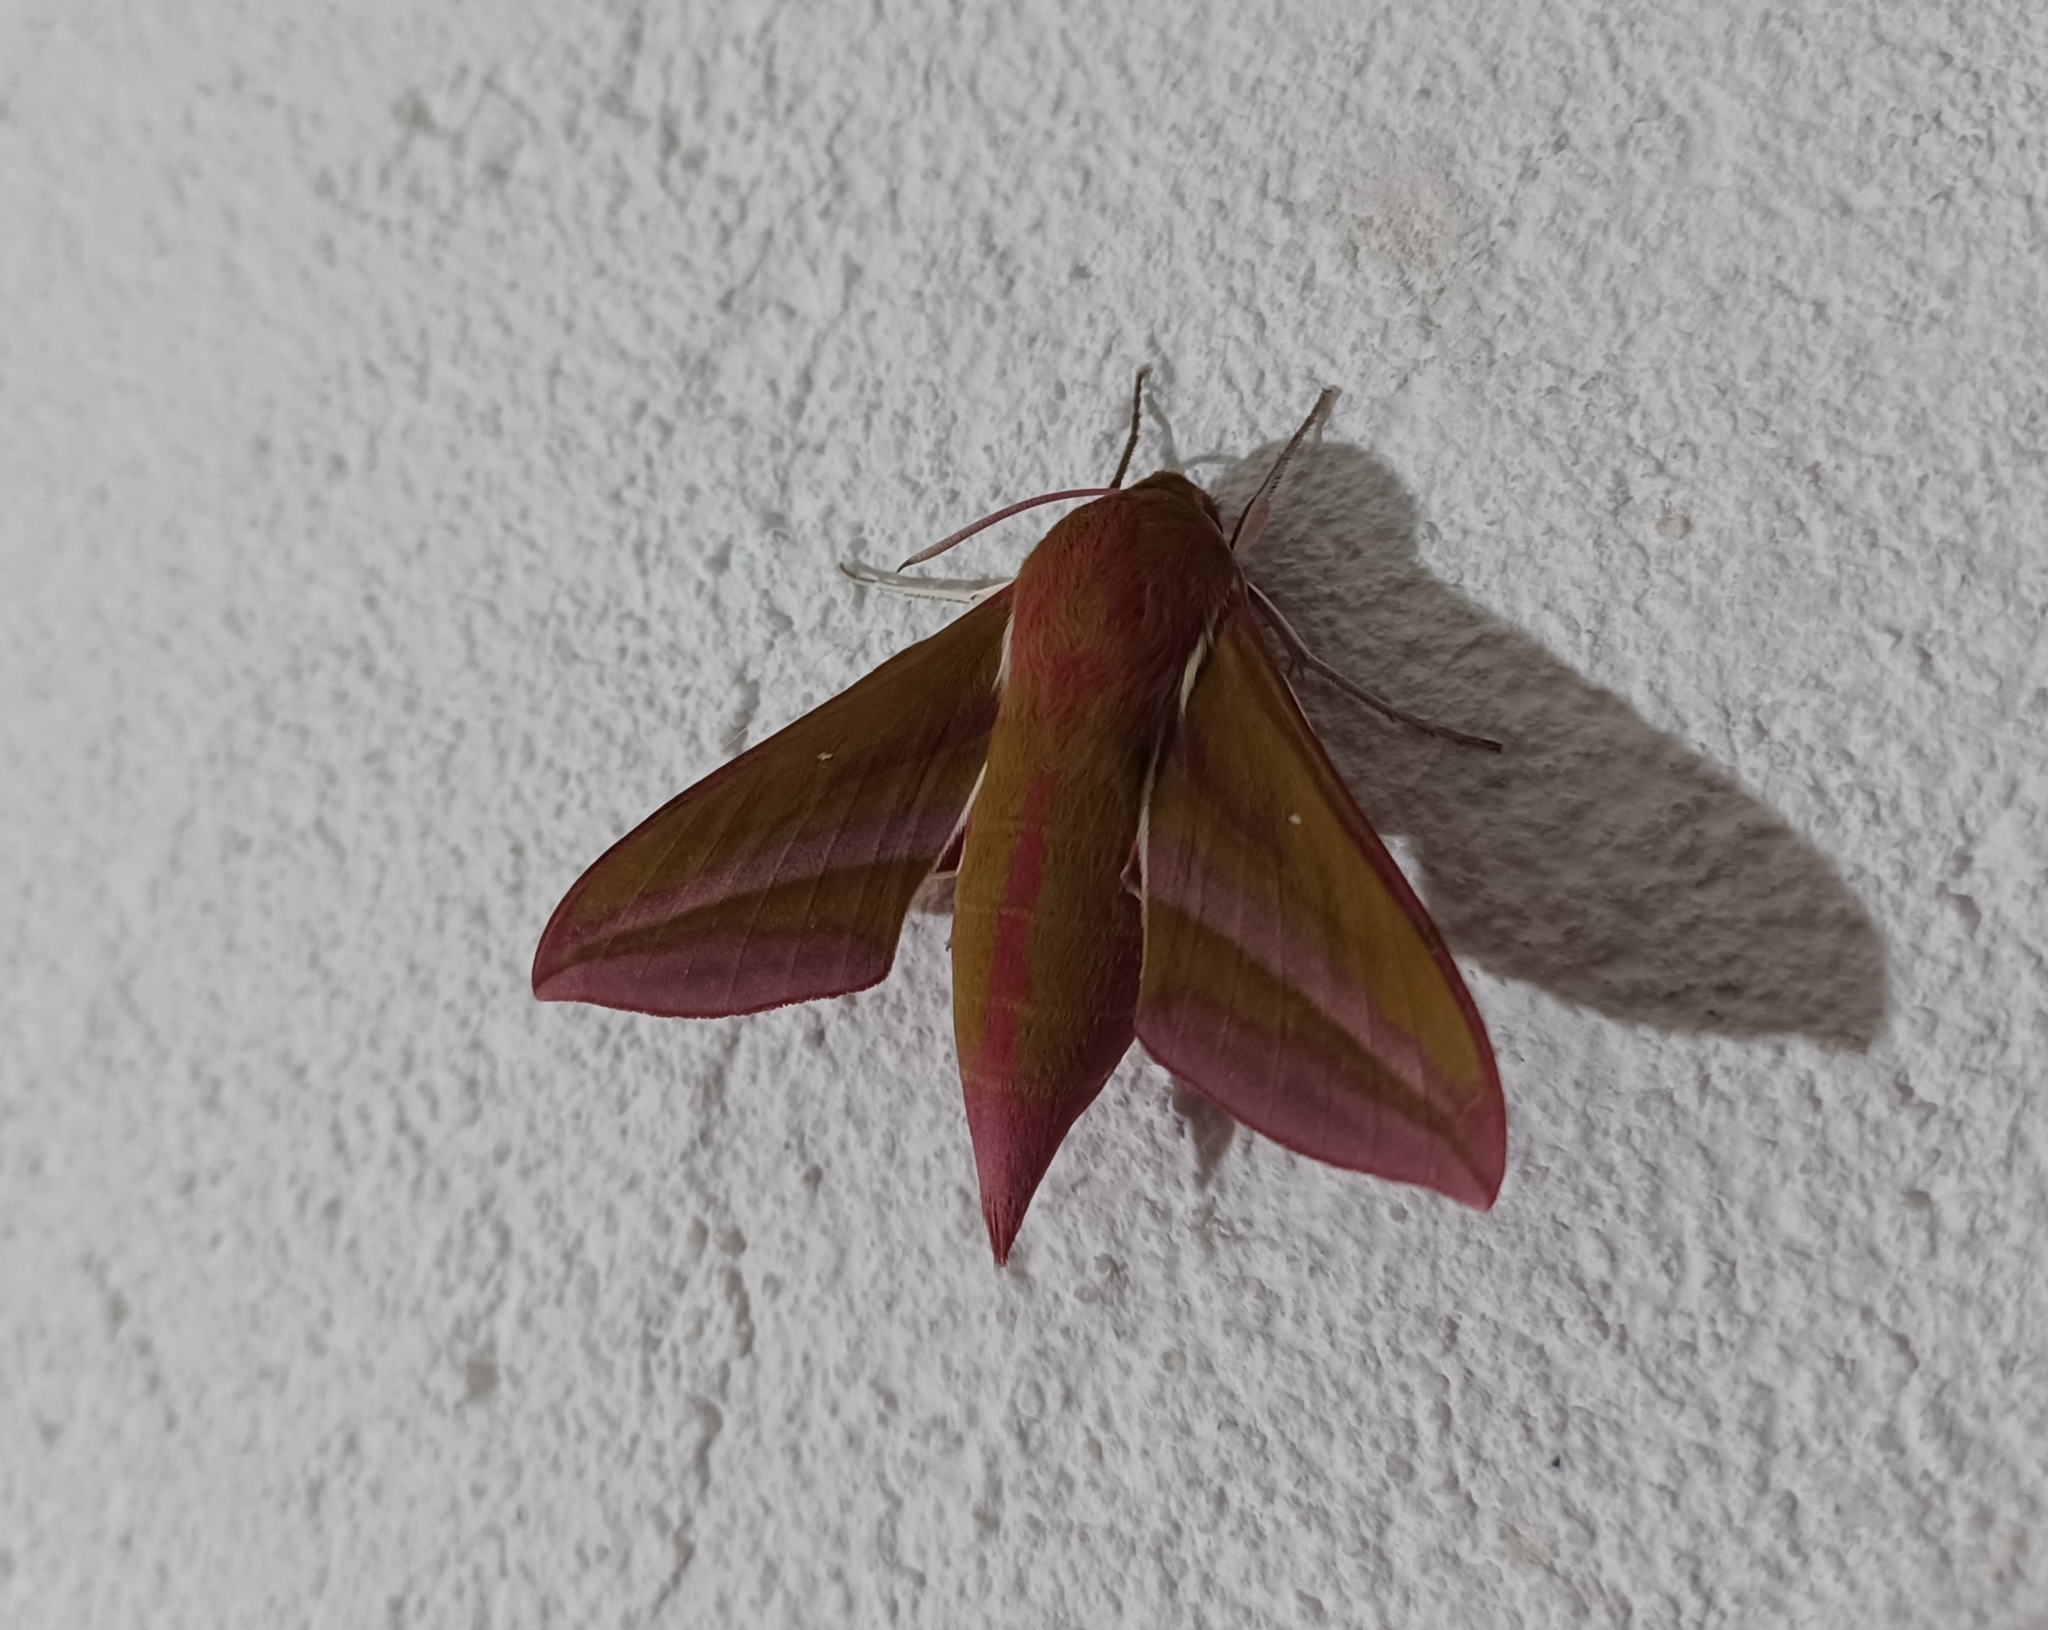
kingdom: Animalia
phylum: Arthropoda
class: Insecta
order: Lepidoptera
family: Sphingidae
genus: Deilephila
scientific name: Deilephila elpenor
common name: Elephant hawk-moth
